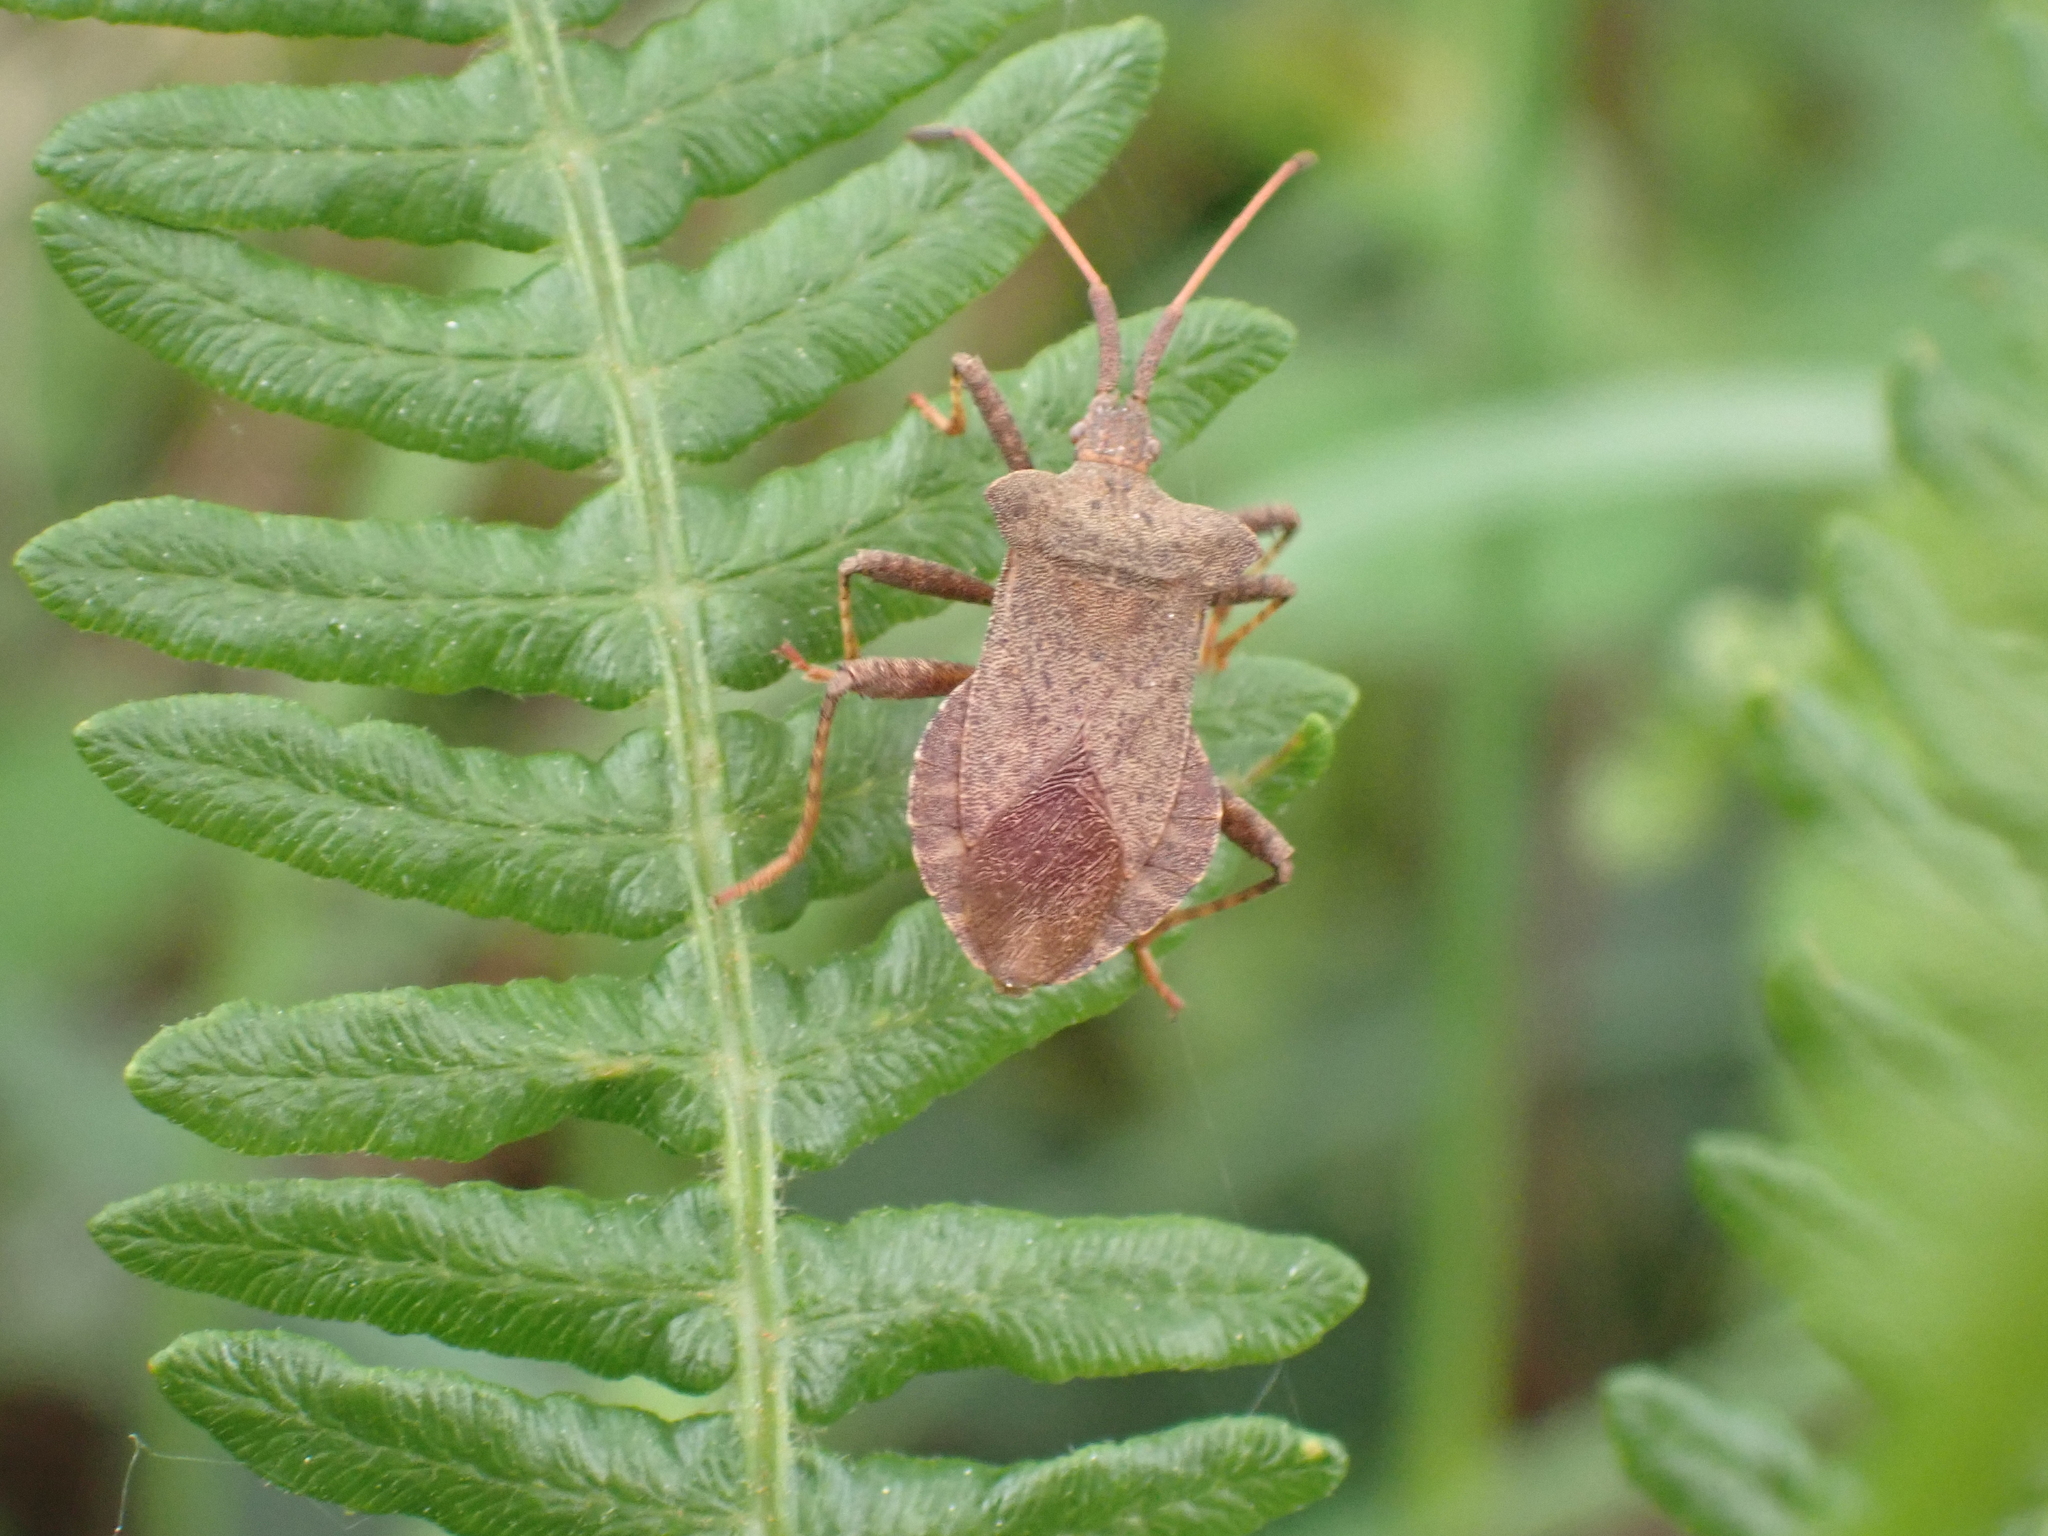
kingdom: Animalia
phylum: Arthropoda
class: Insecta
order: Hemiptera
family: Coreidae
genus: Coreus
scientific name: Coreus marginatus
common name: Dock bug
